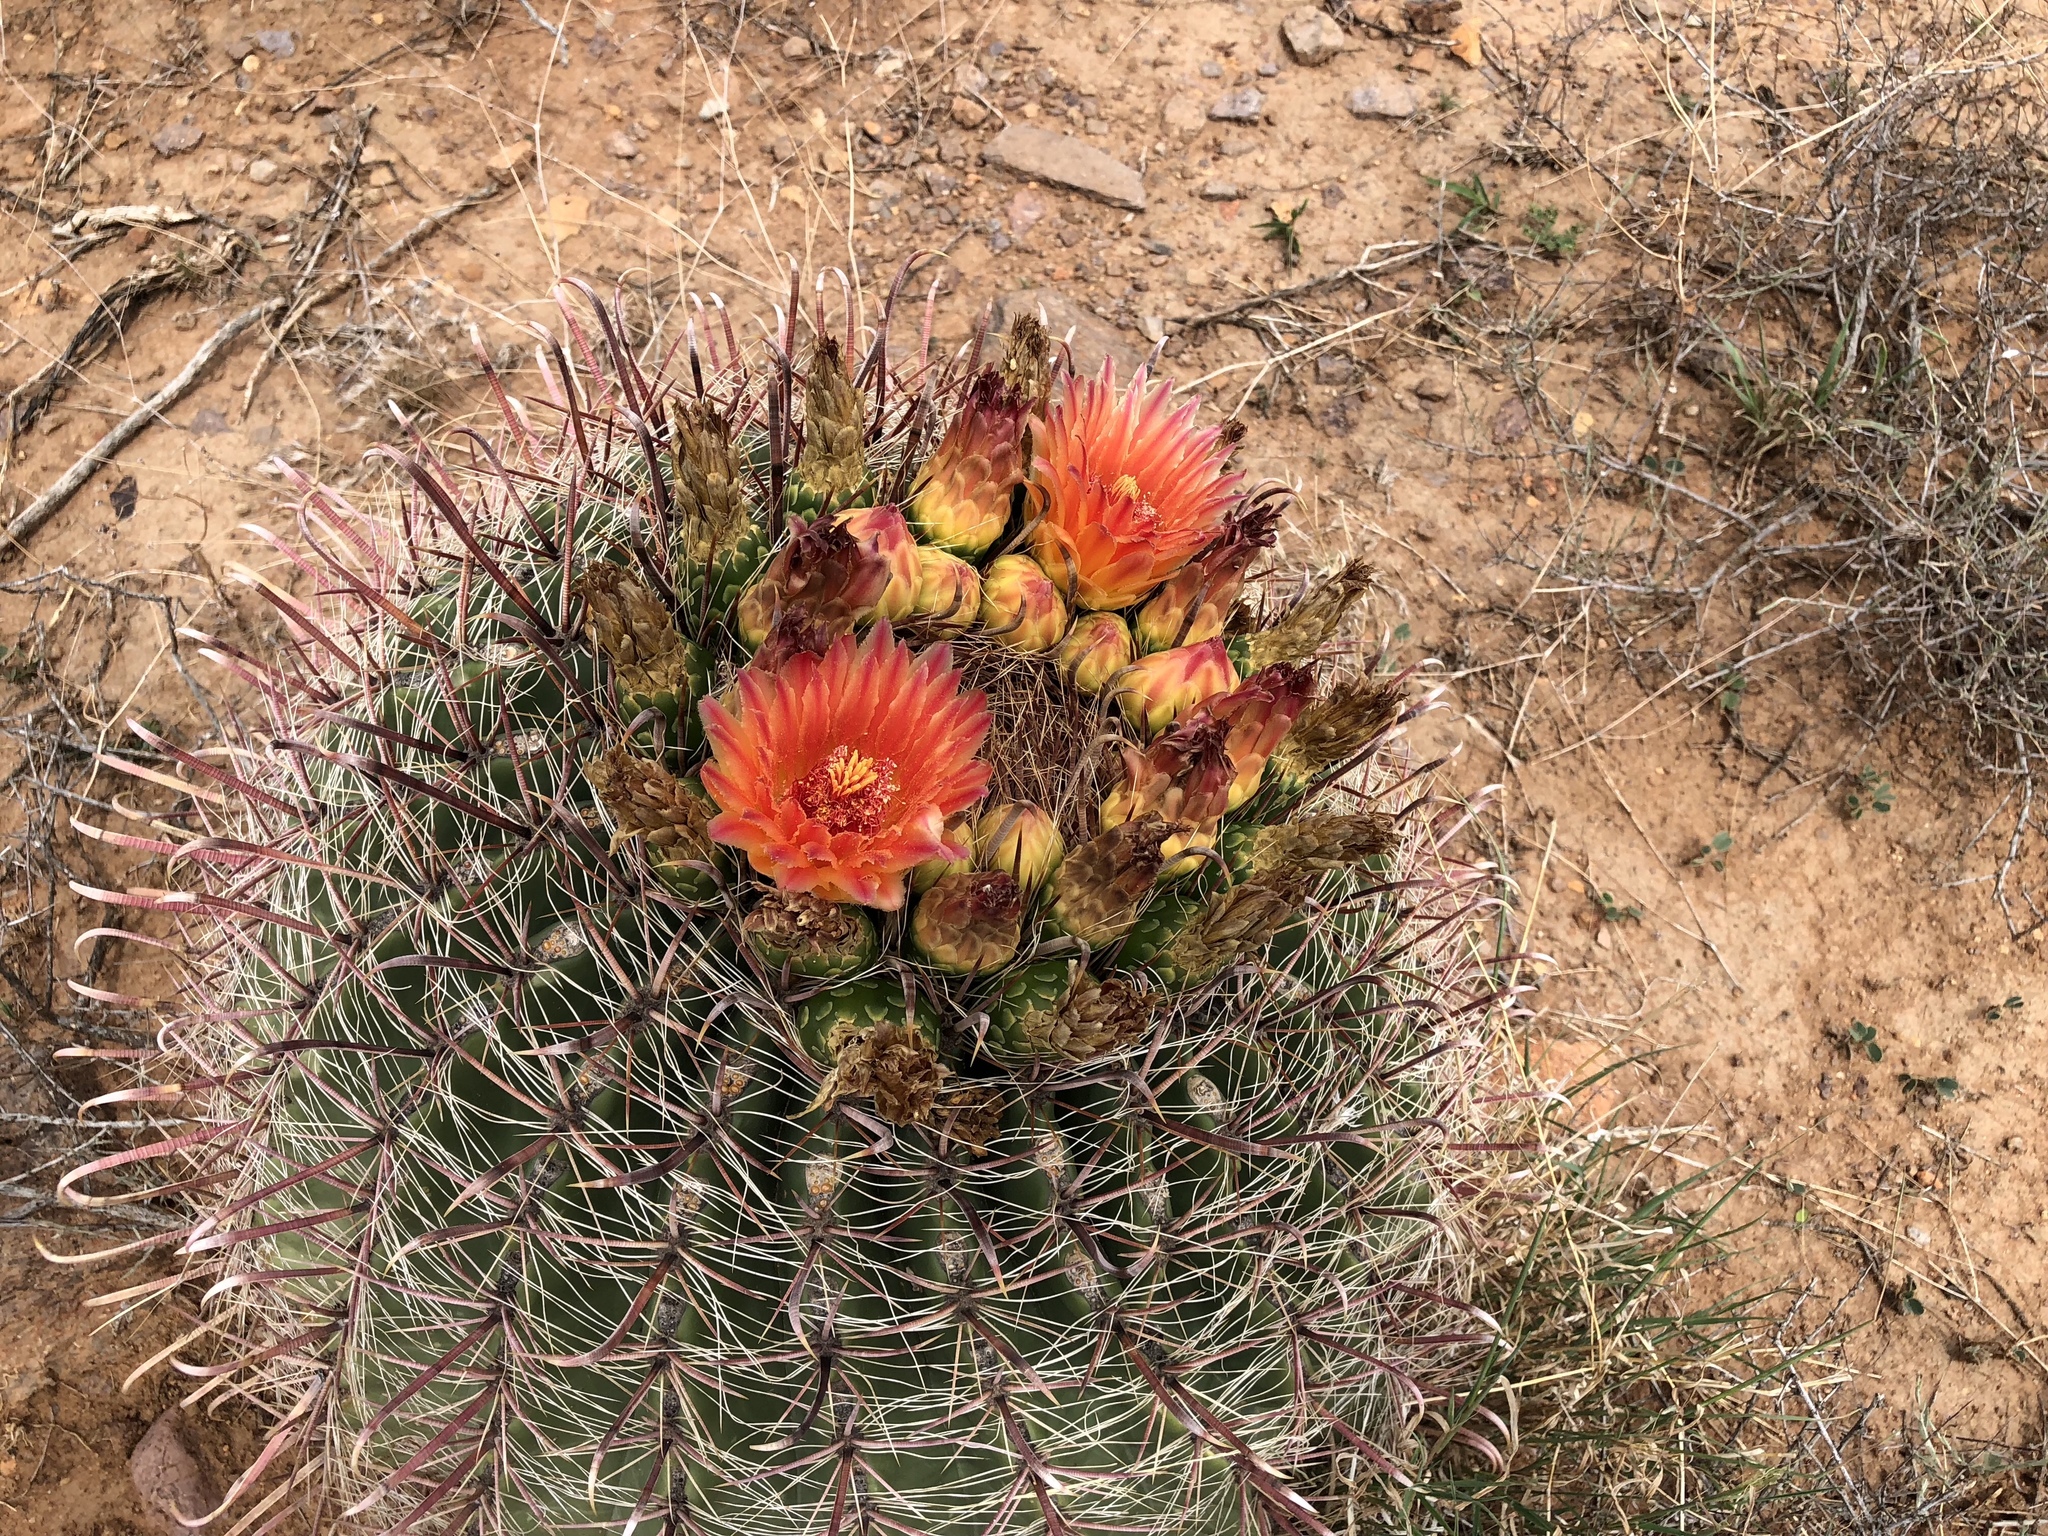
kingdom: Plantae
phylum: Tracheophyta
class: Magnoliopsida
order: Caryophyllales
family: Cactaceae
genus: Ferocactus
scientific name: Ferocactus wislizeni
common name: Candy barrel cactus
